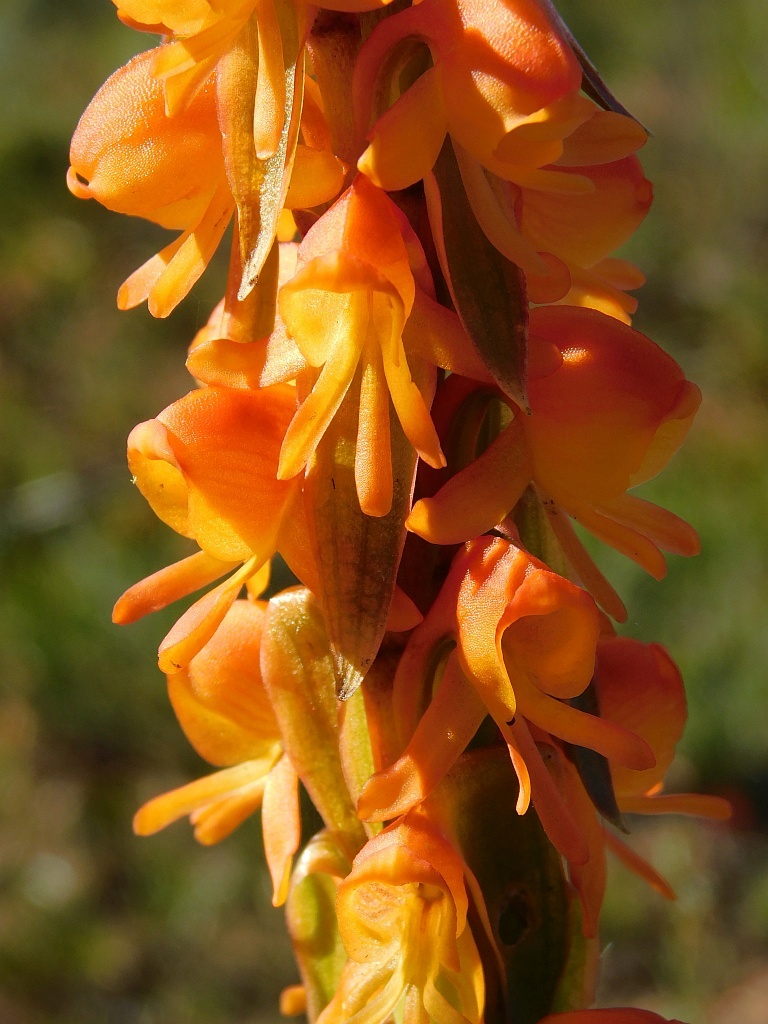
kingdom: Plantae
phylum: Tracheophyta
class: Liliopsida
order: Asparagales
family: Orchidaceae
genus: Satyrium
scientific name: Satyrium coriifolium
